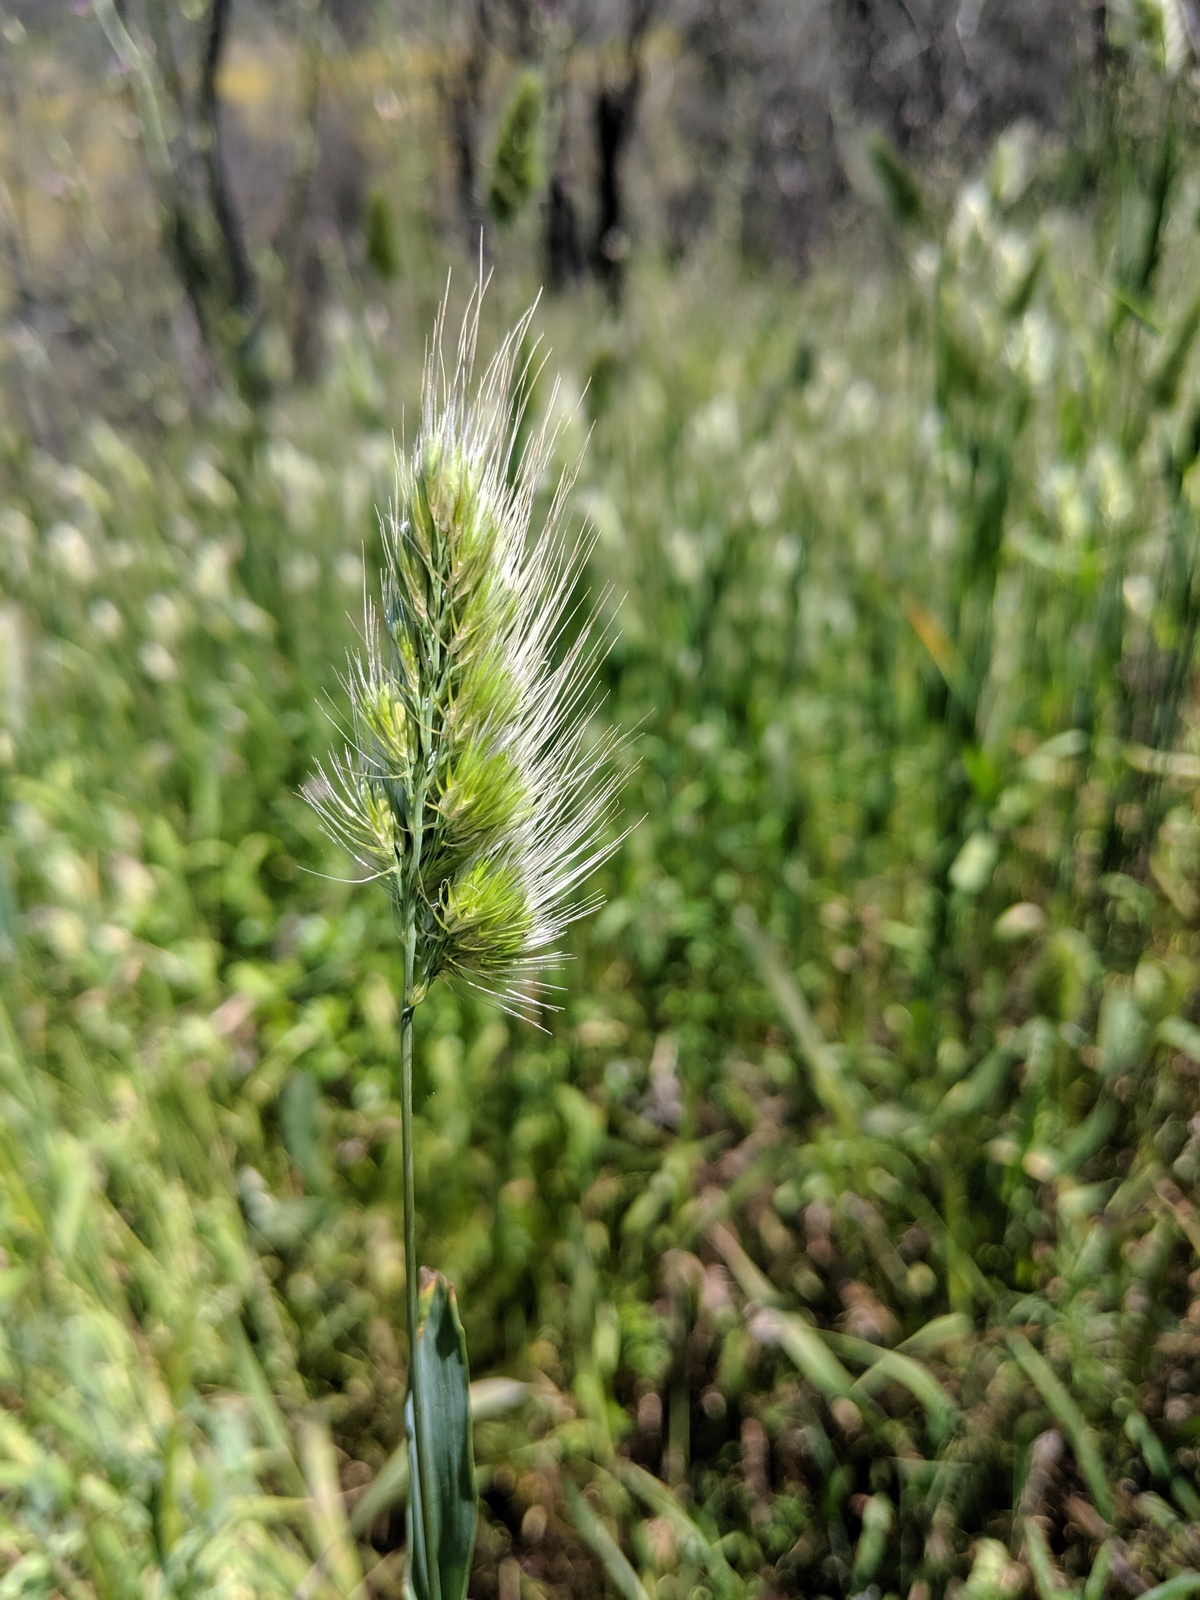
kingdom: Plantae
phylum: Tracheophyta
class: Liliopsida
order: Poales
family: Poaceae
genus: Cynosurus
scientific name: Cynosurus echinatus
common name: Rough dog's-tail
